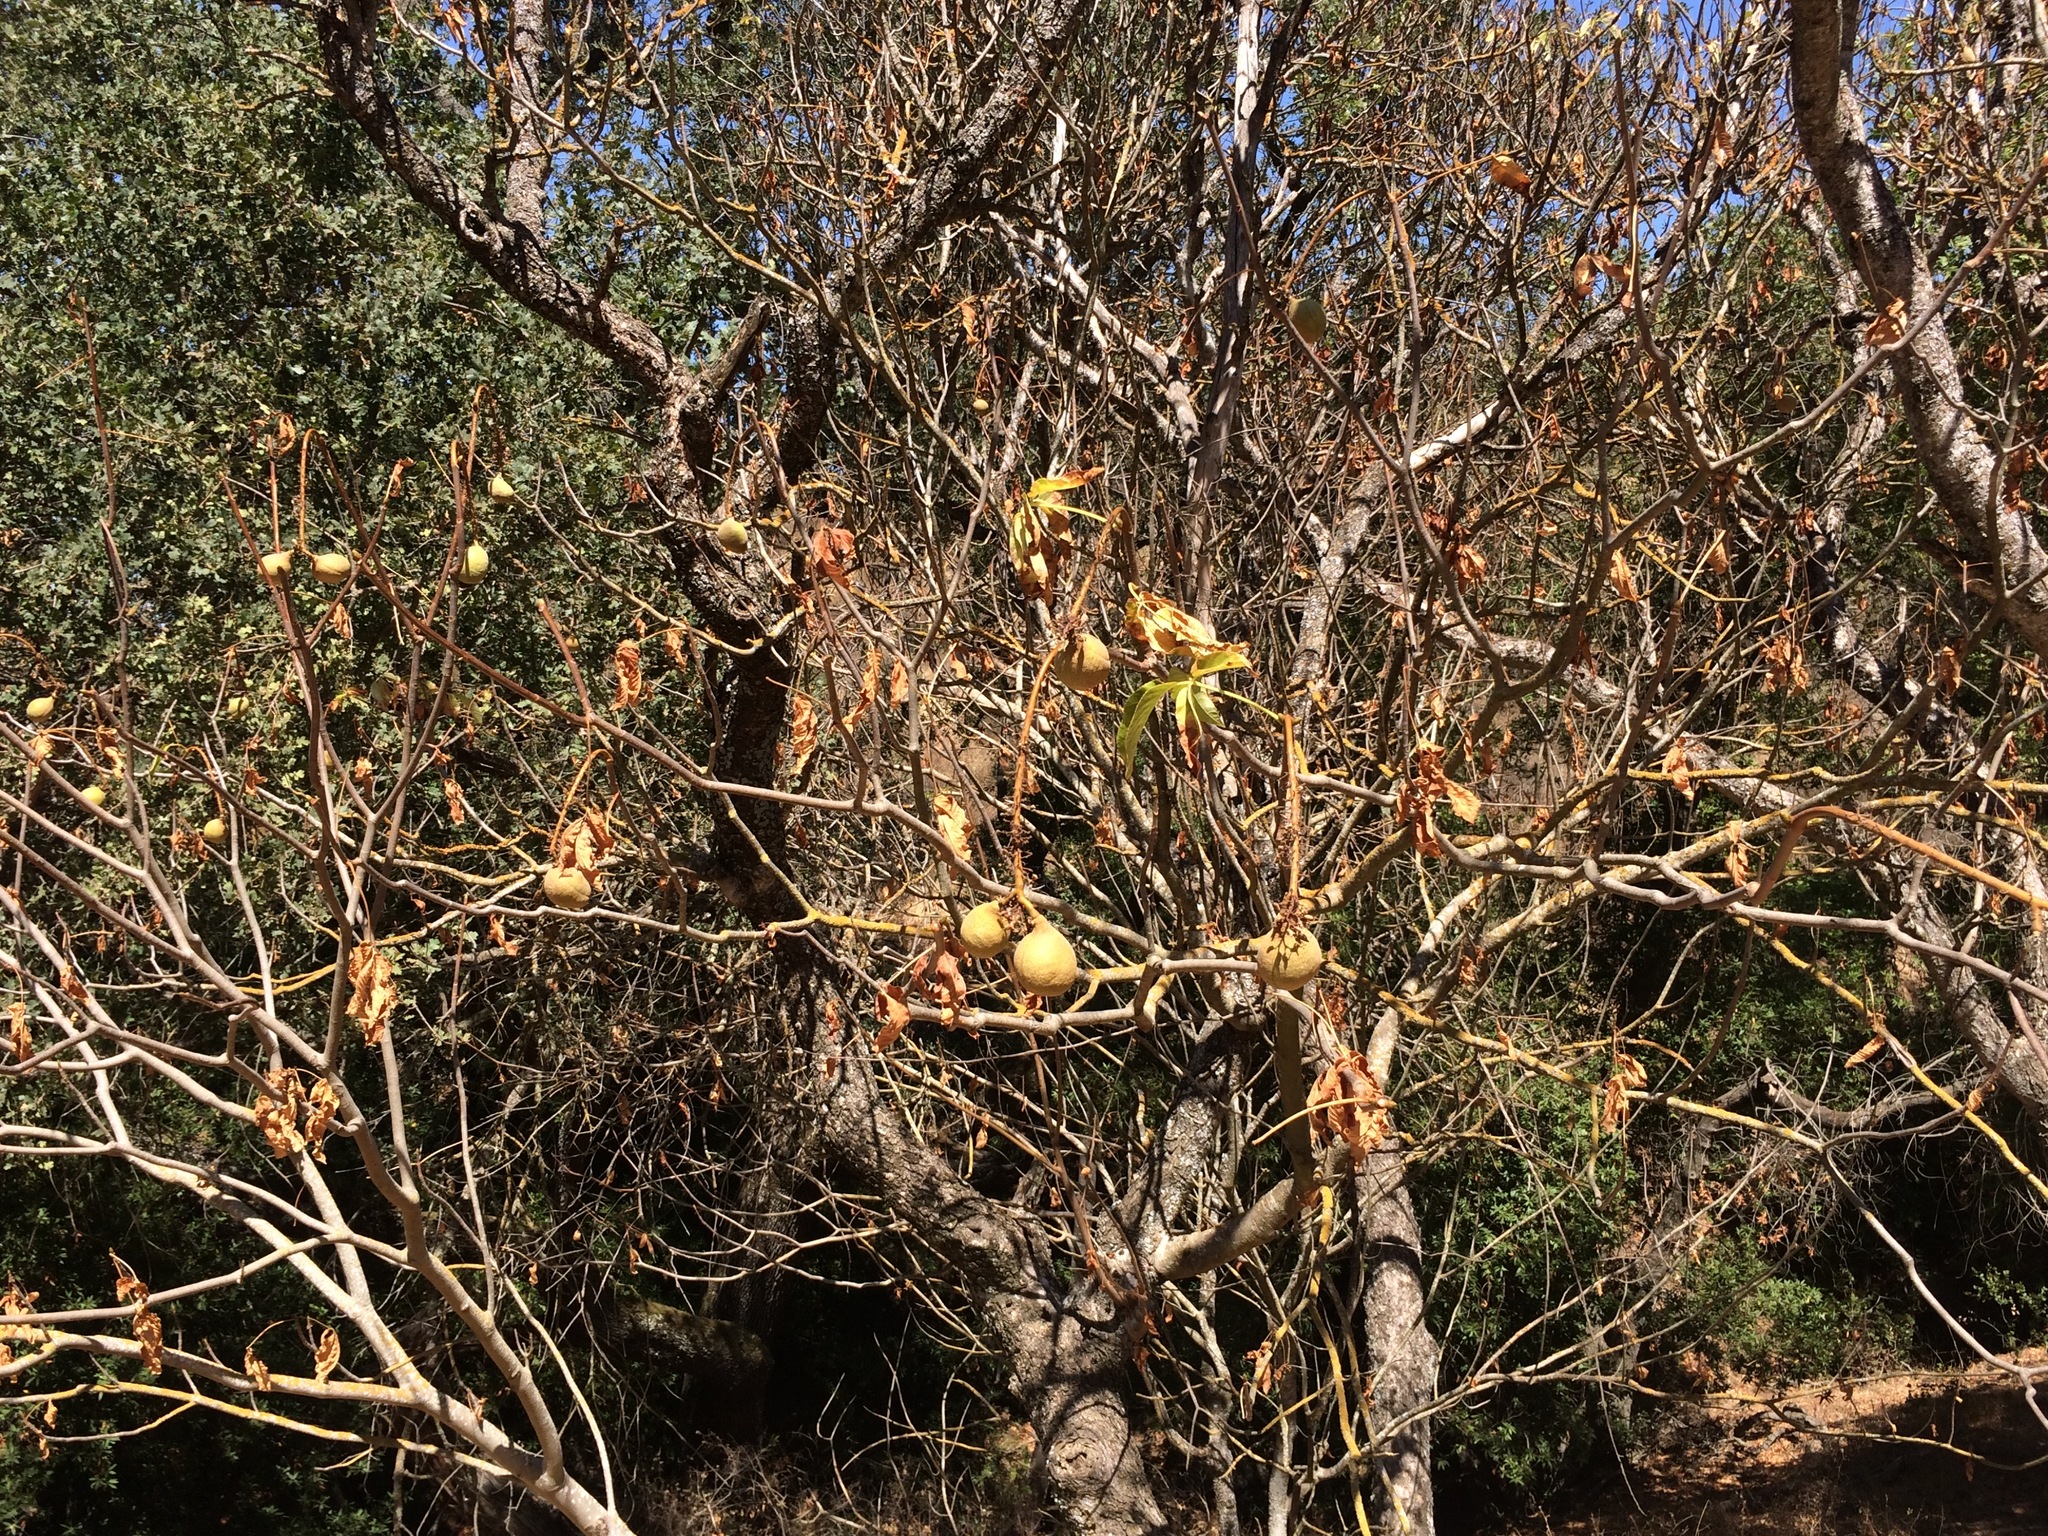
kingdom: Plantae
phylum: Tracheophyta
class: Magnoliopsida
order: Sapindales
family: Sapindaceae
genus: Aesculus
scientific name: Aesculus californica
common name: California buckeye
